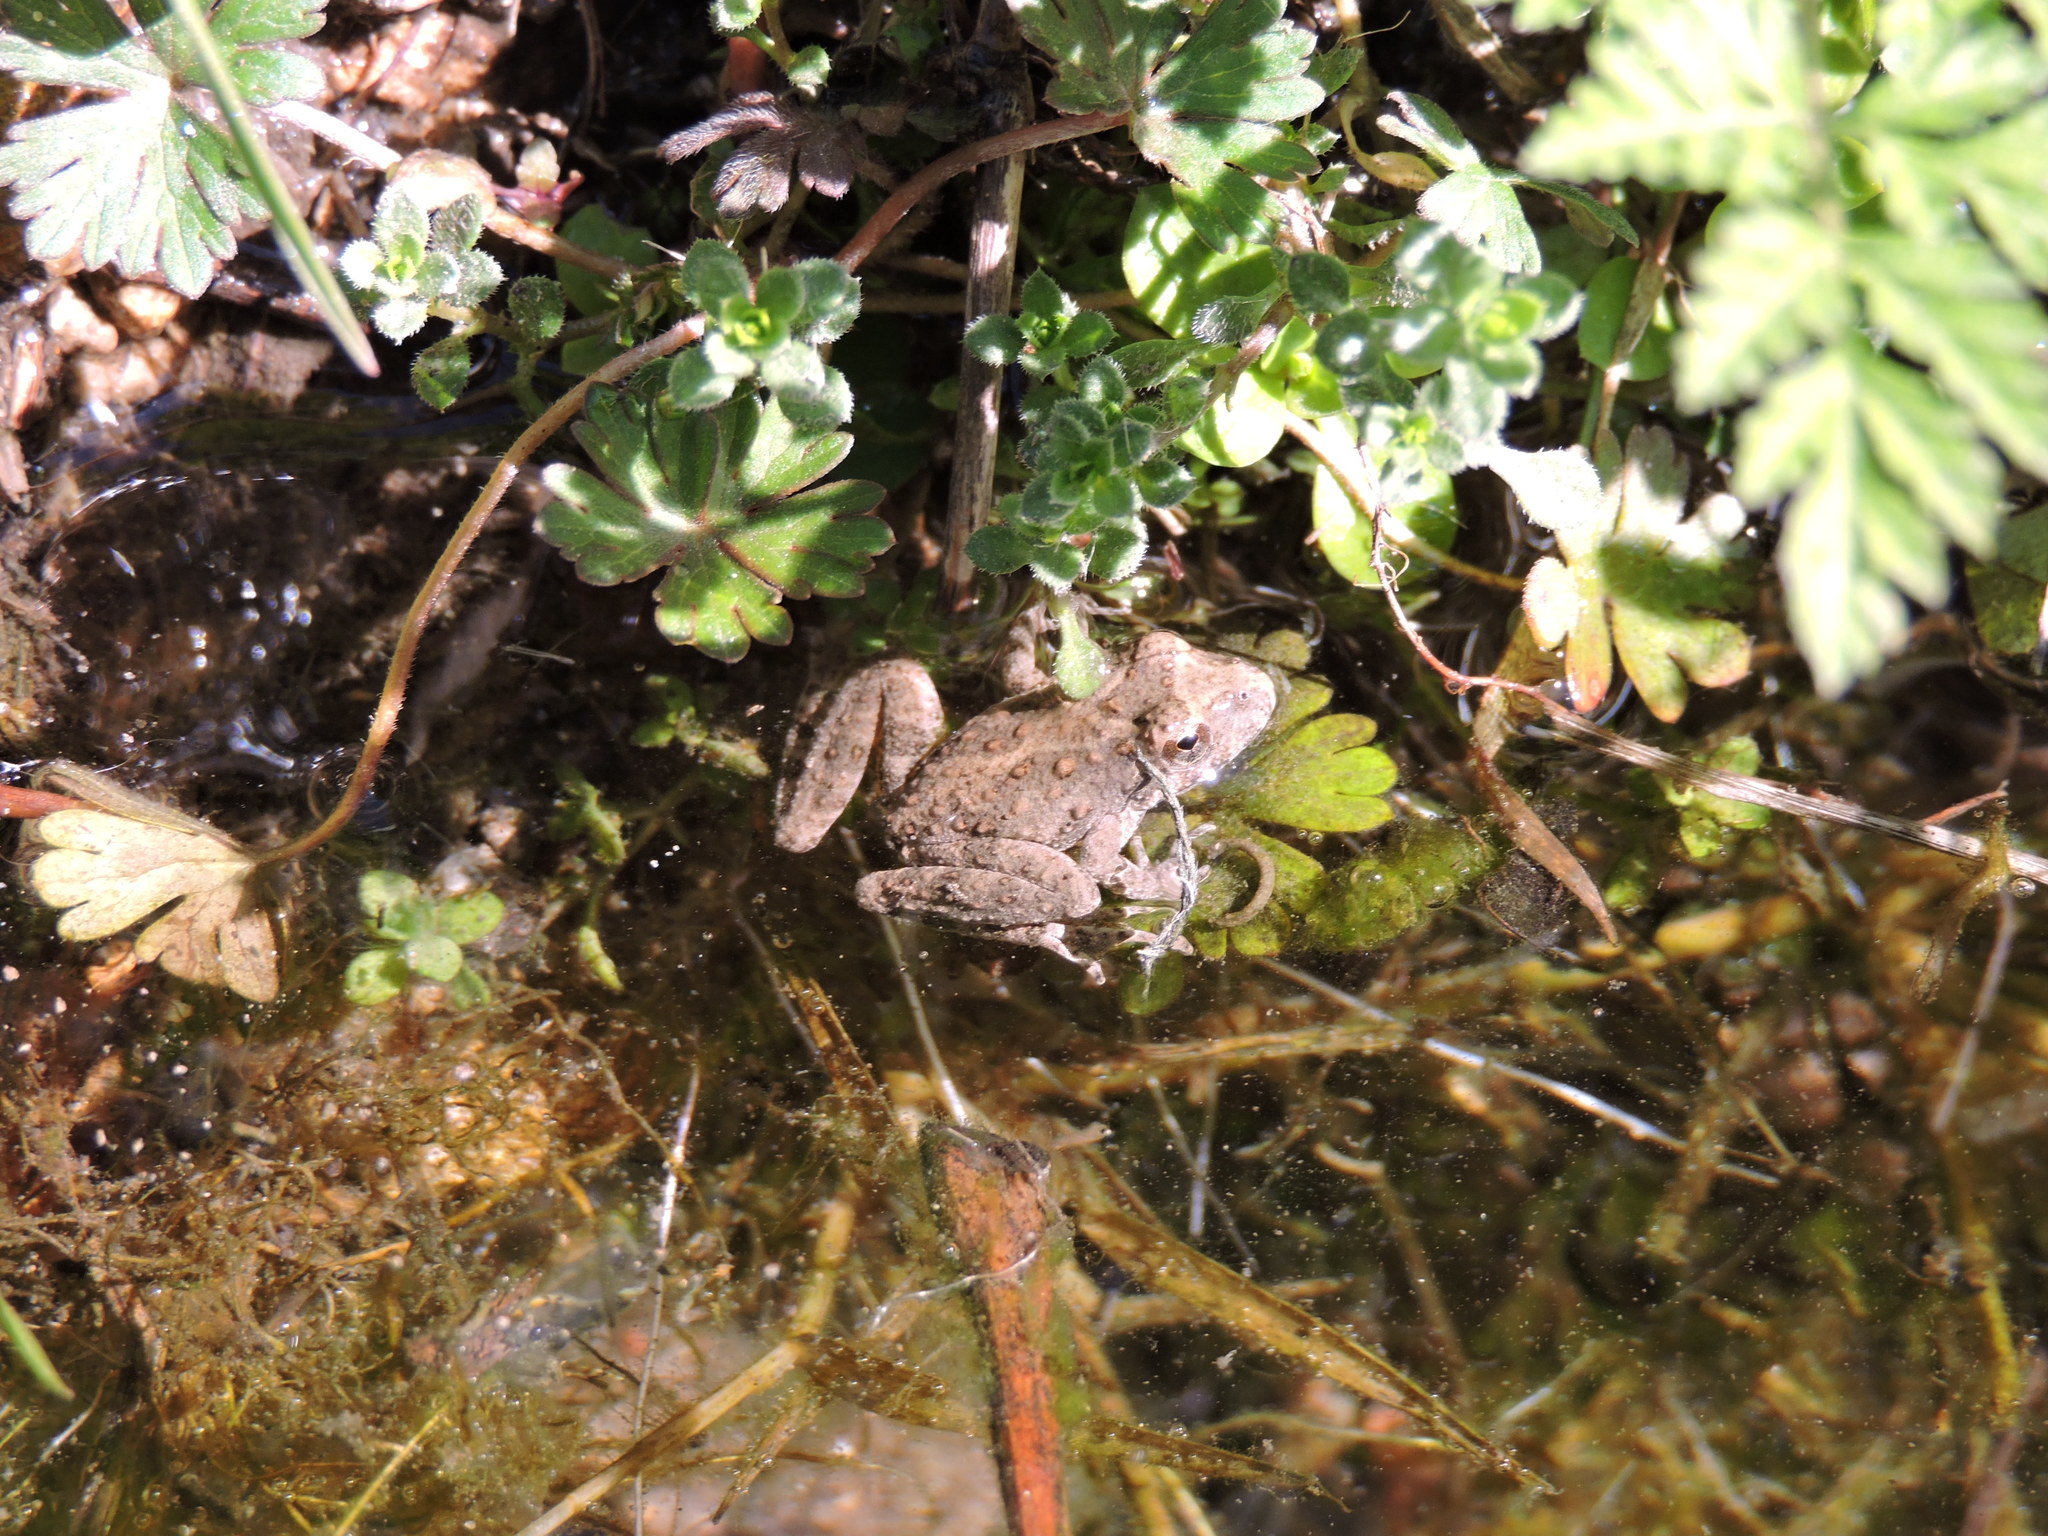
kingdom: Animalia
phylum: Chordata
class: Amphibia
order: Anura
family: Hylidae
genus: Acris
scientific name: Acris blanchardi
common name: Blanchard's cricket frog
